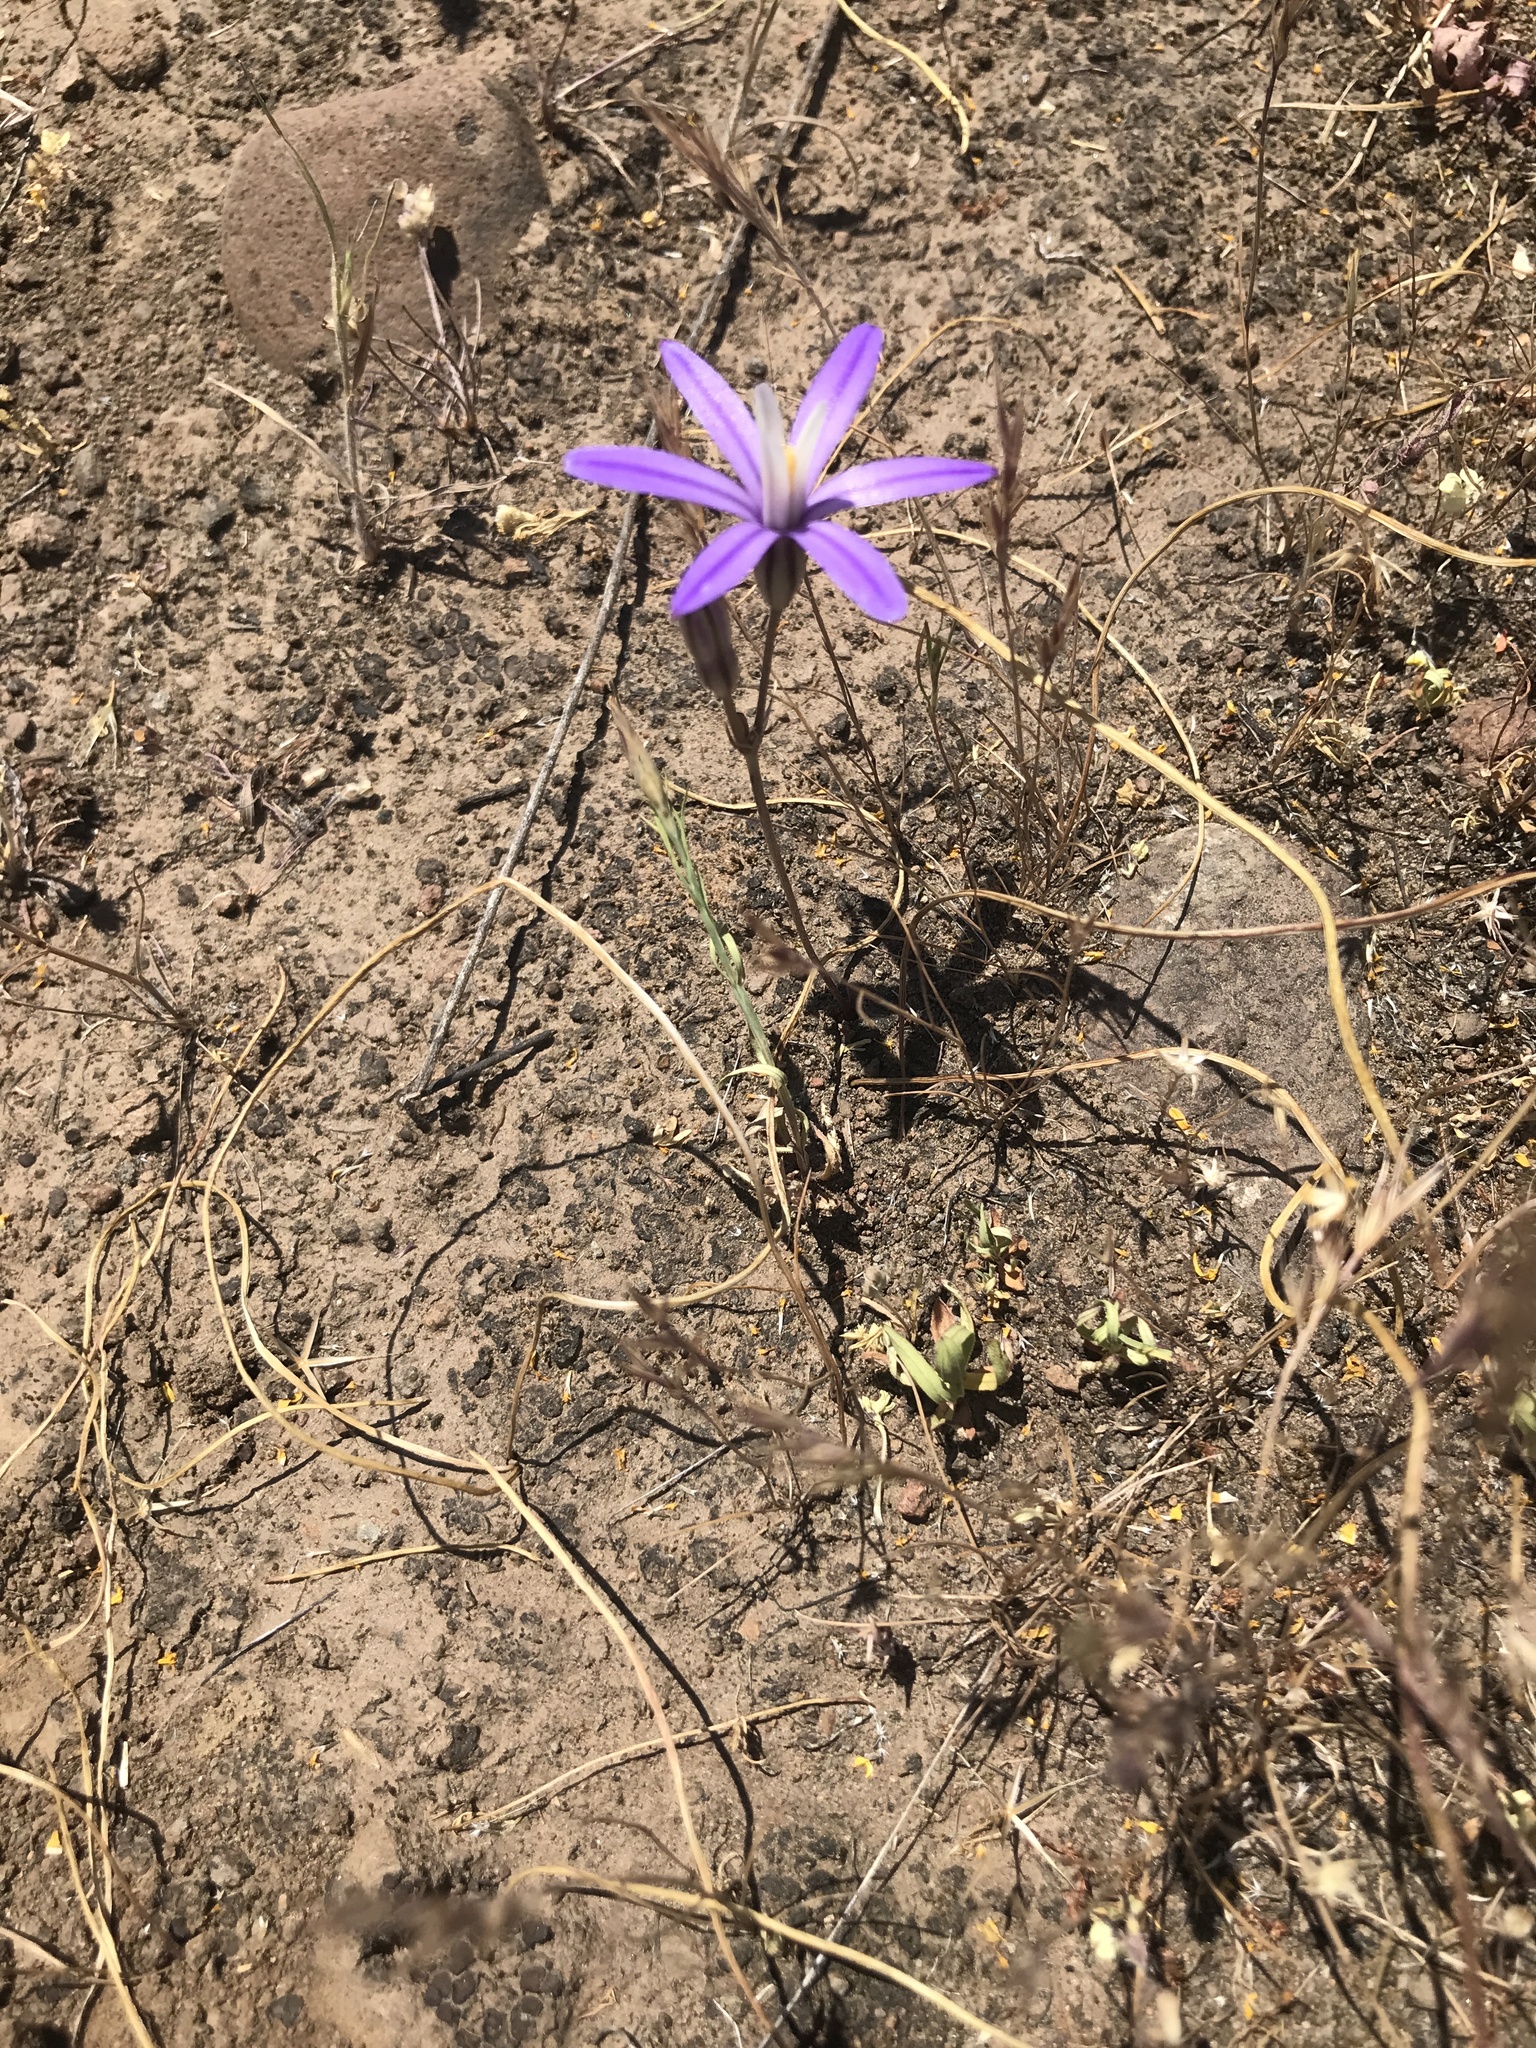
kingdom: Plantae
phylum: Tracheophyta
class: Liliopsida
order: Asparagales
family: Asparagaceae
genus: Brodiaea
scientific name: Brodiaea minor
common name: Dwarf brodiaea
